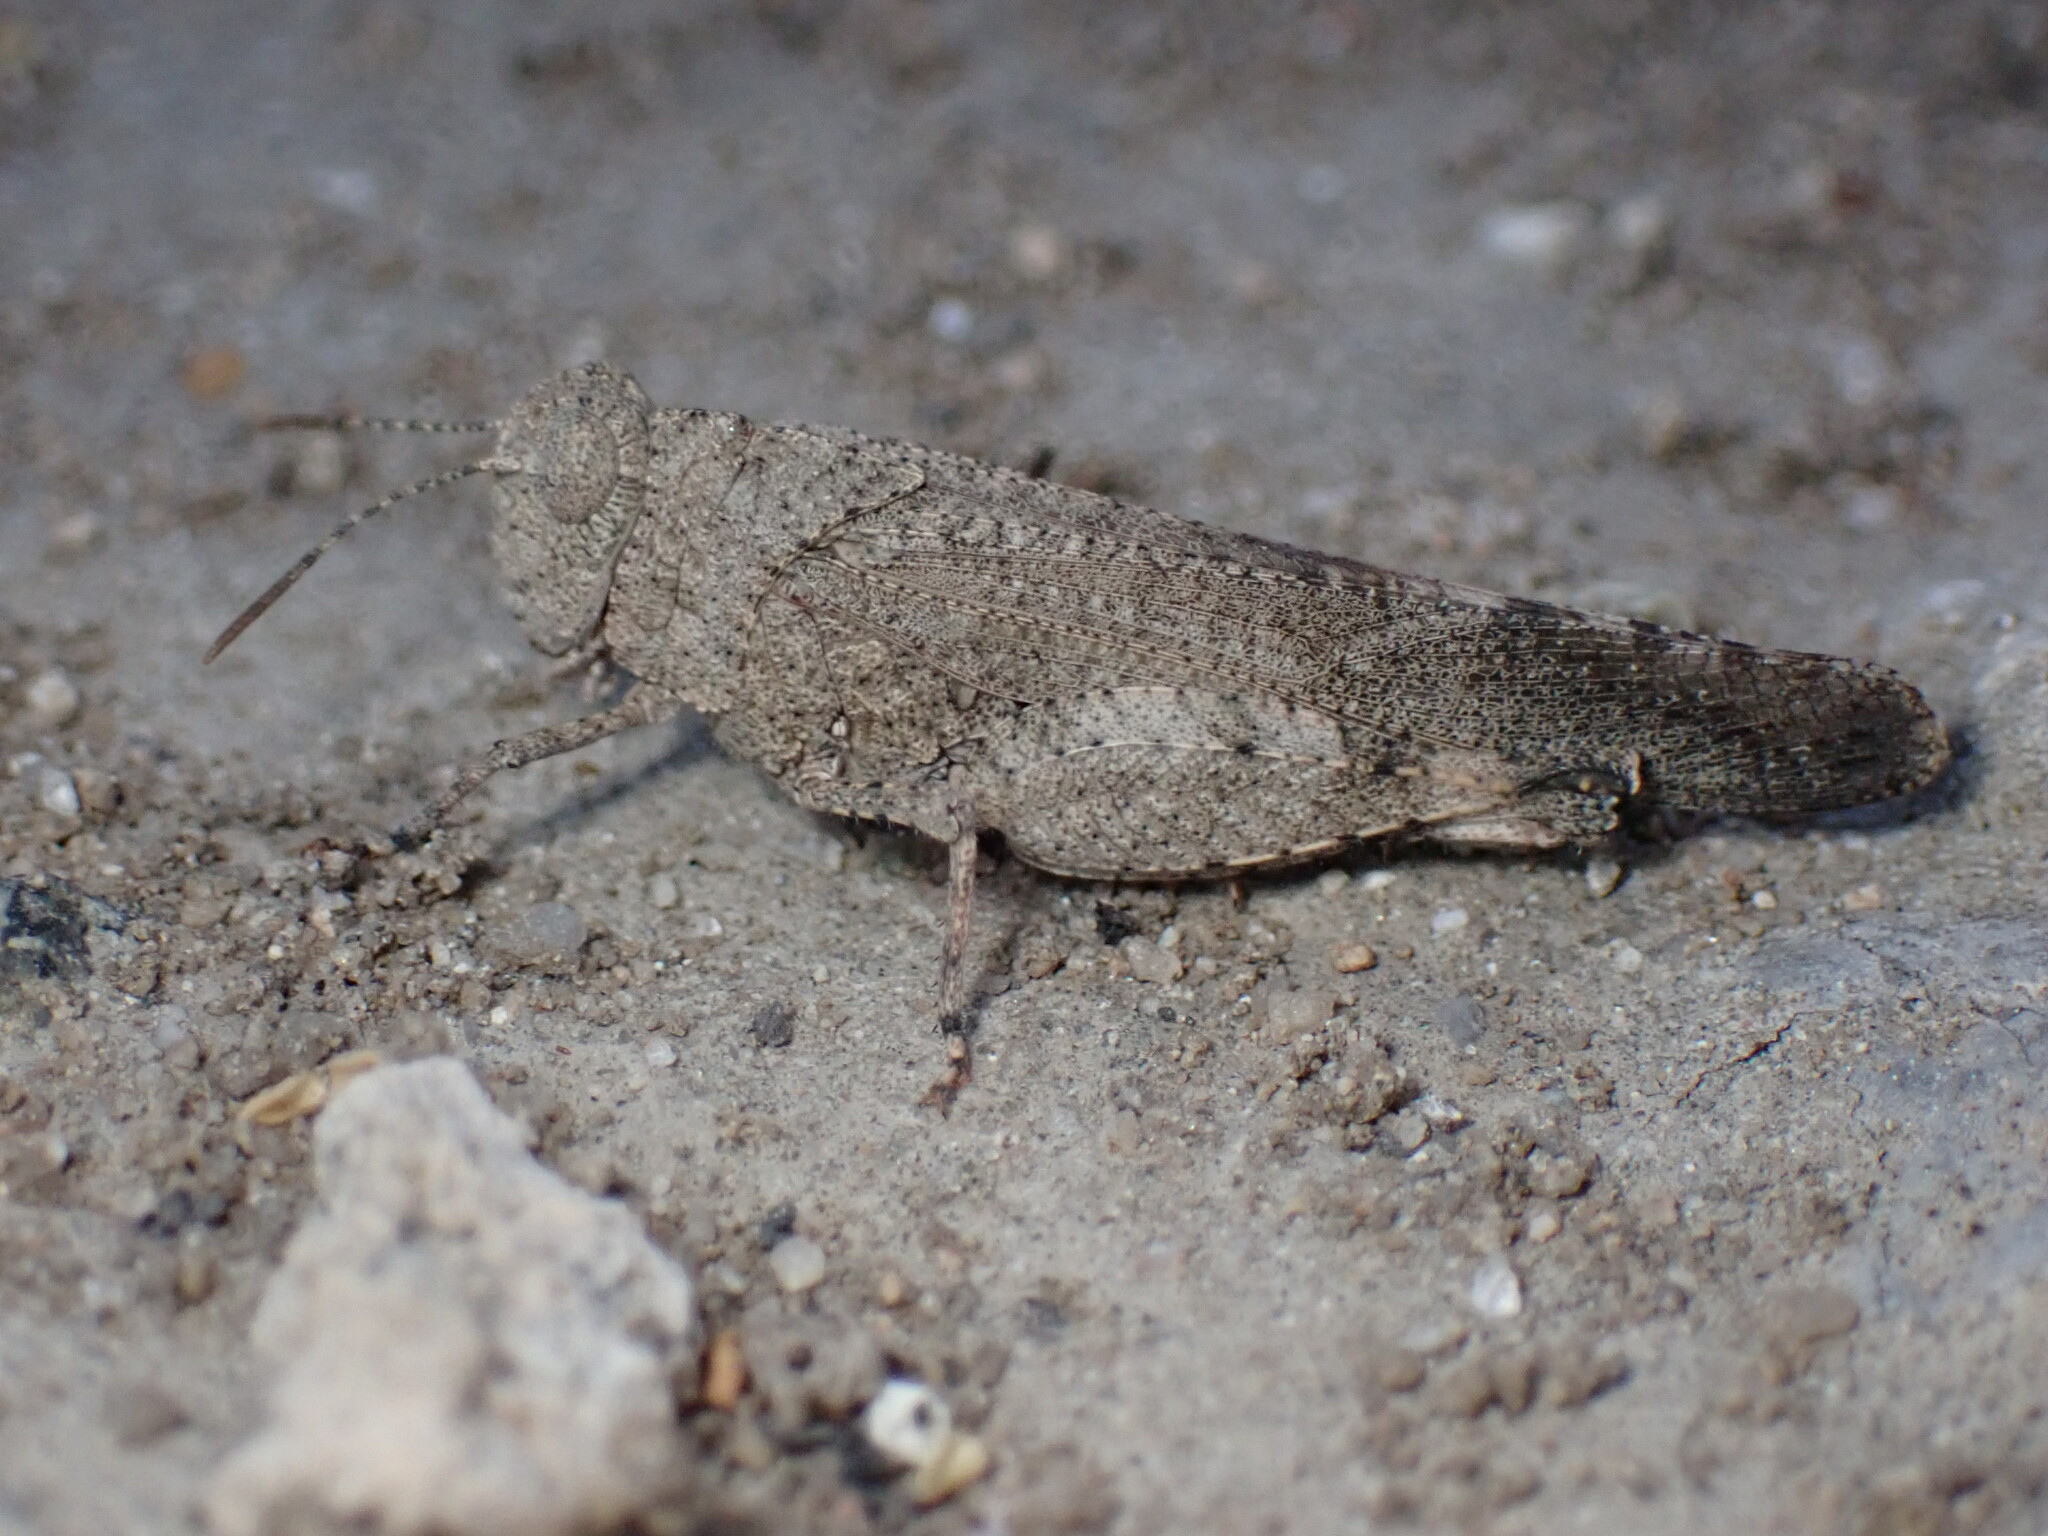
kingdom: Animalia
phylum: Arthropoda
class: Insecta
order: Orthoptera
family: Acrididae
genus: Lactista
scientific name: Lactista gibbosus
